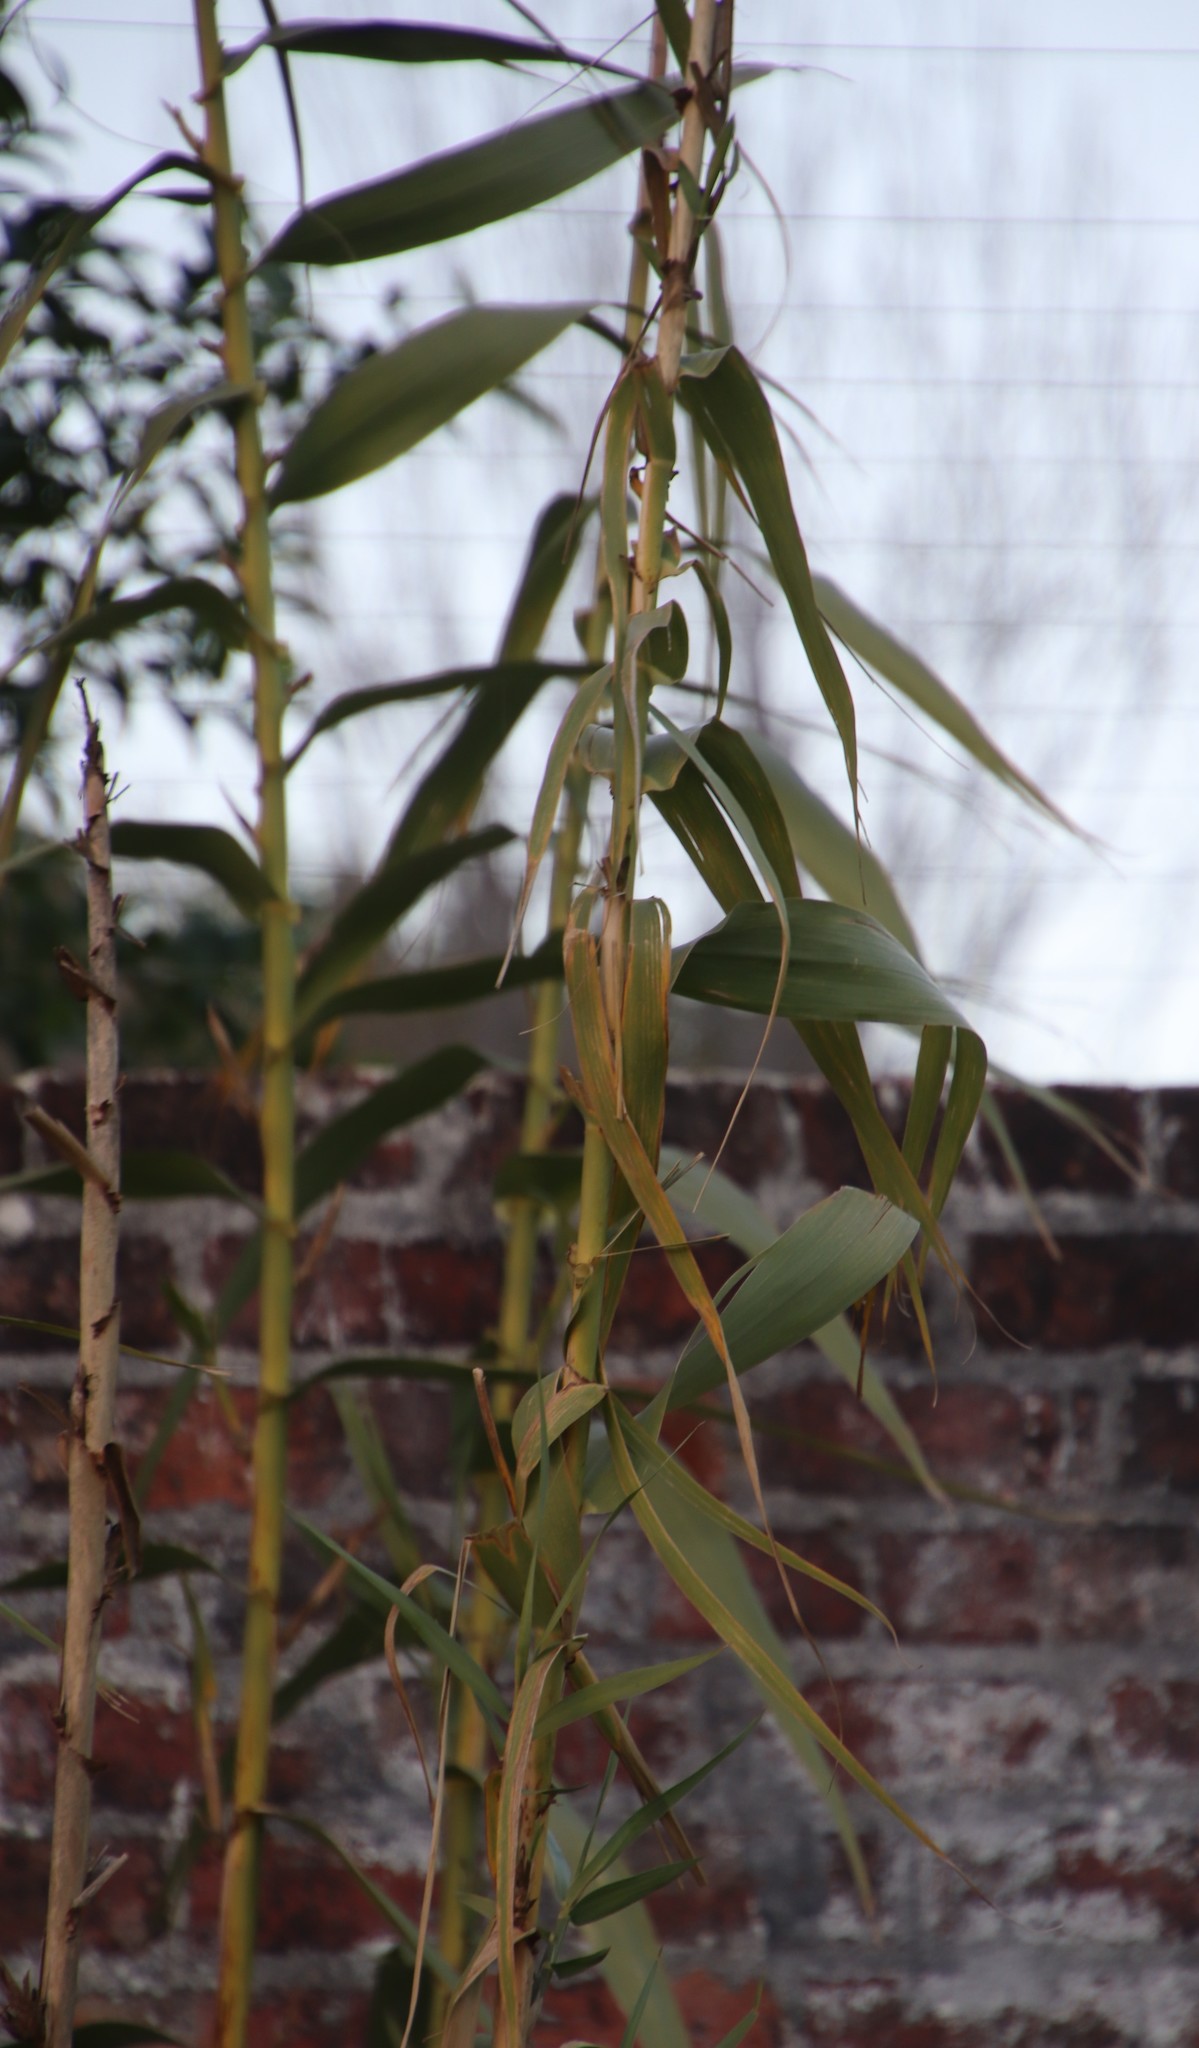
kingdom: Plantae
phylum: Tracheophyta
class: Liliopsida
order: Poales
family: Poaceae
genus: Arundo
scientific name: Arundo donax
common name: Giant reed
